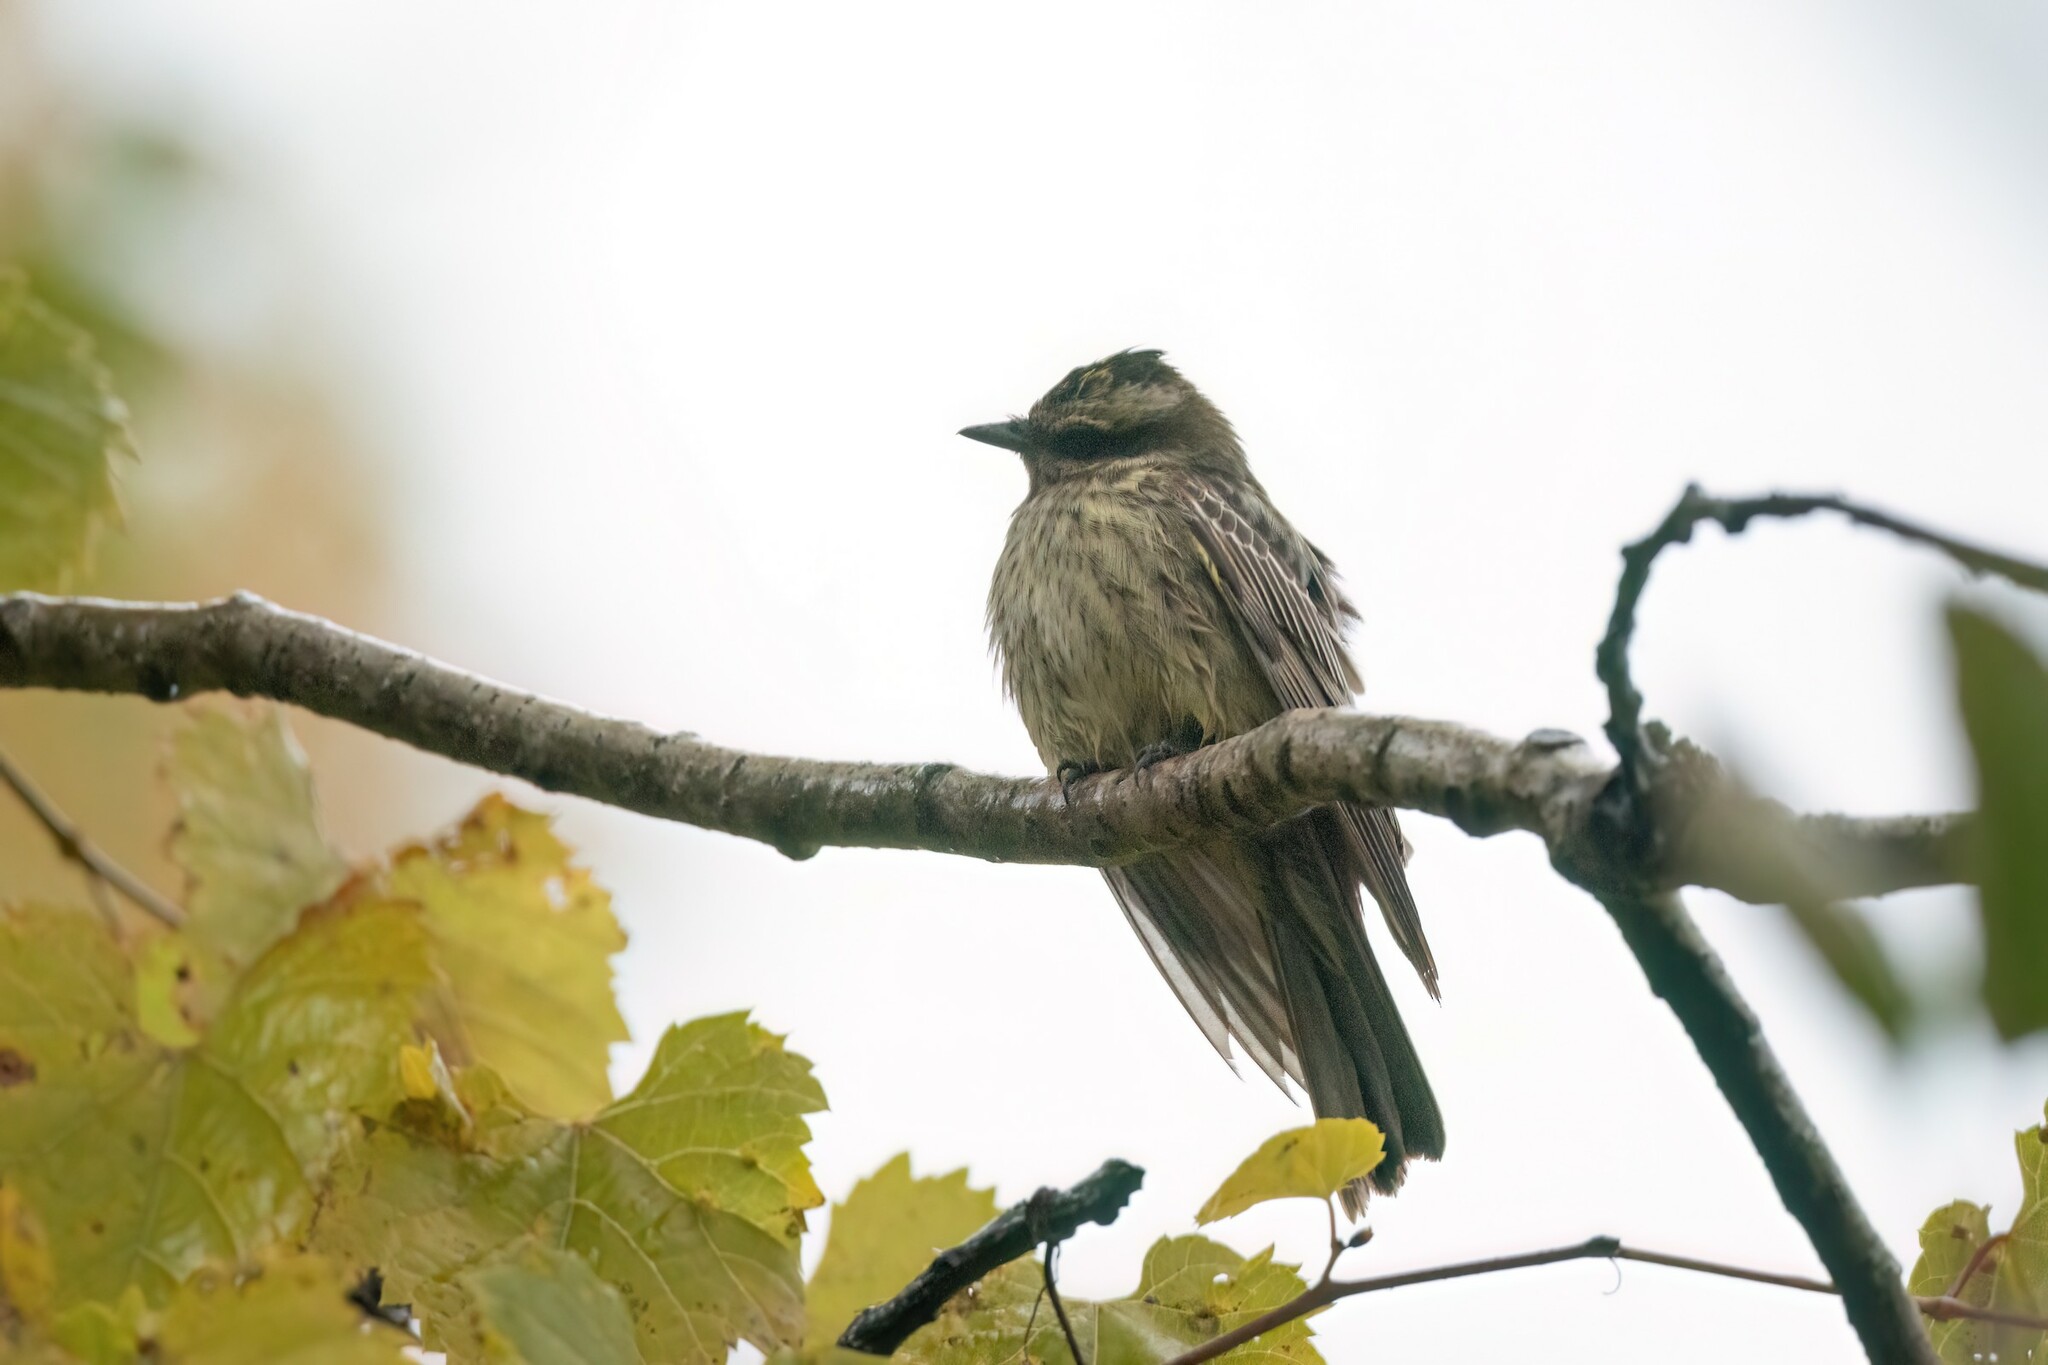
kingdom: Animalia
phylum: Chordata
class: Aves
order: Passeriformes
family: Tyrannidae
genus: Empidonomus
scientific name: Empidonomus varius
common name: Variegated flycatcher
